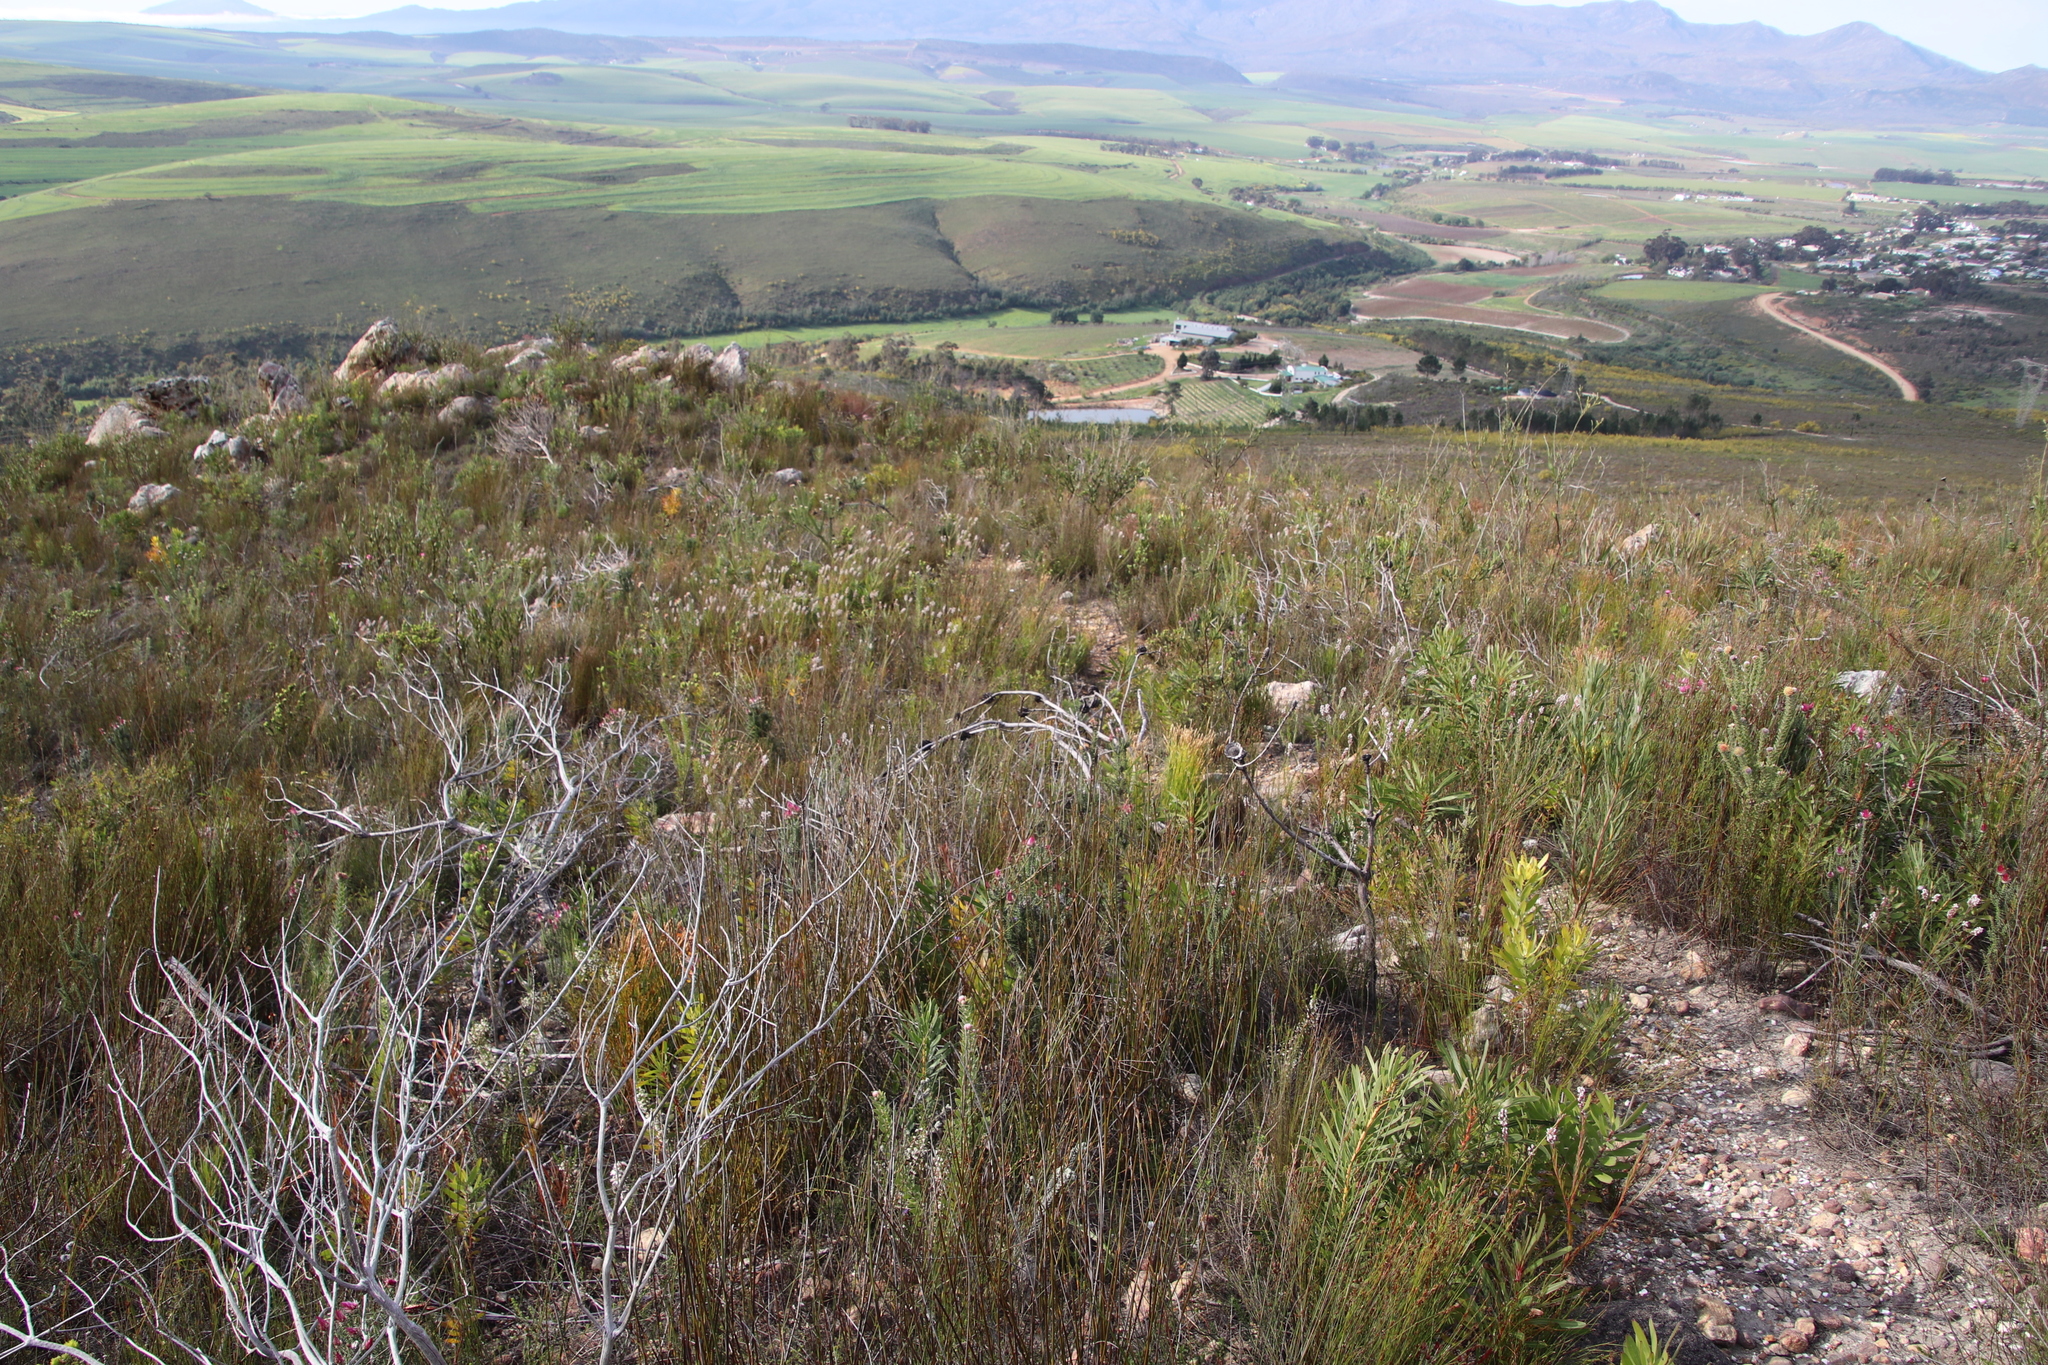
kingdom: Plantae
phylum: Tracheophyta
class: Magnoliopsida
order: Proteales
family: Proteaceae
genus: Spatalla
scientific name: Spatalla racemosa
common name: Lax-stalked spoon
